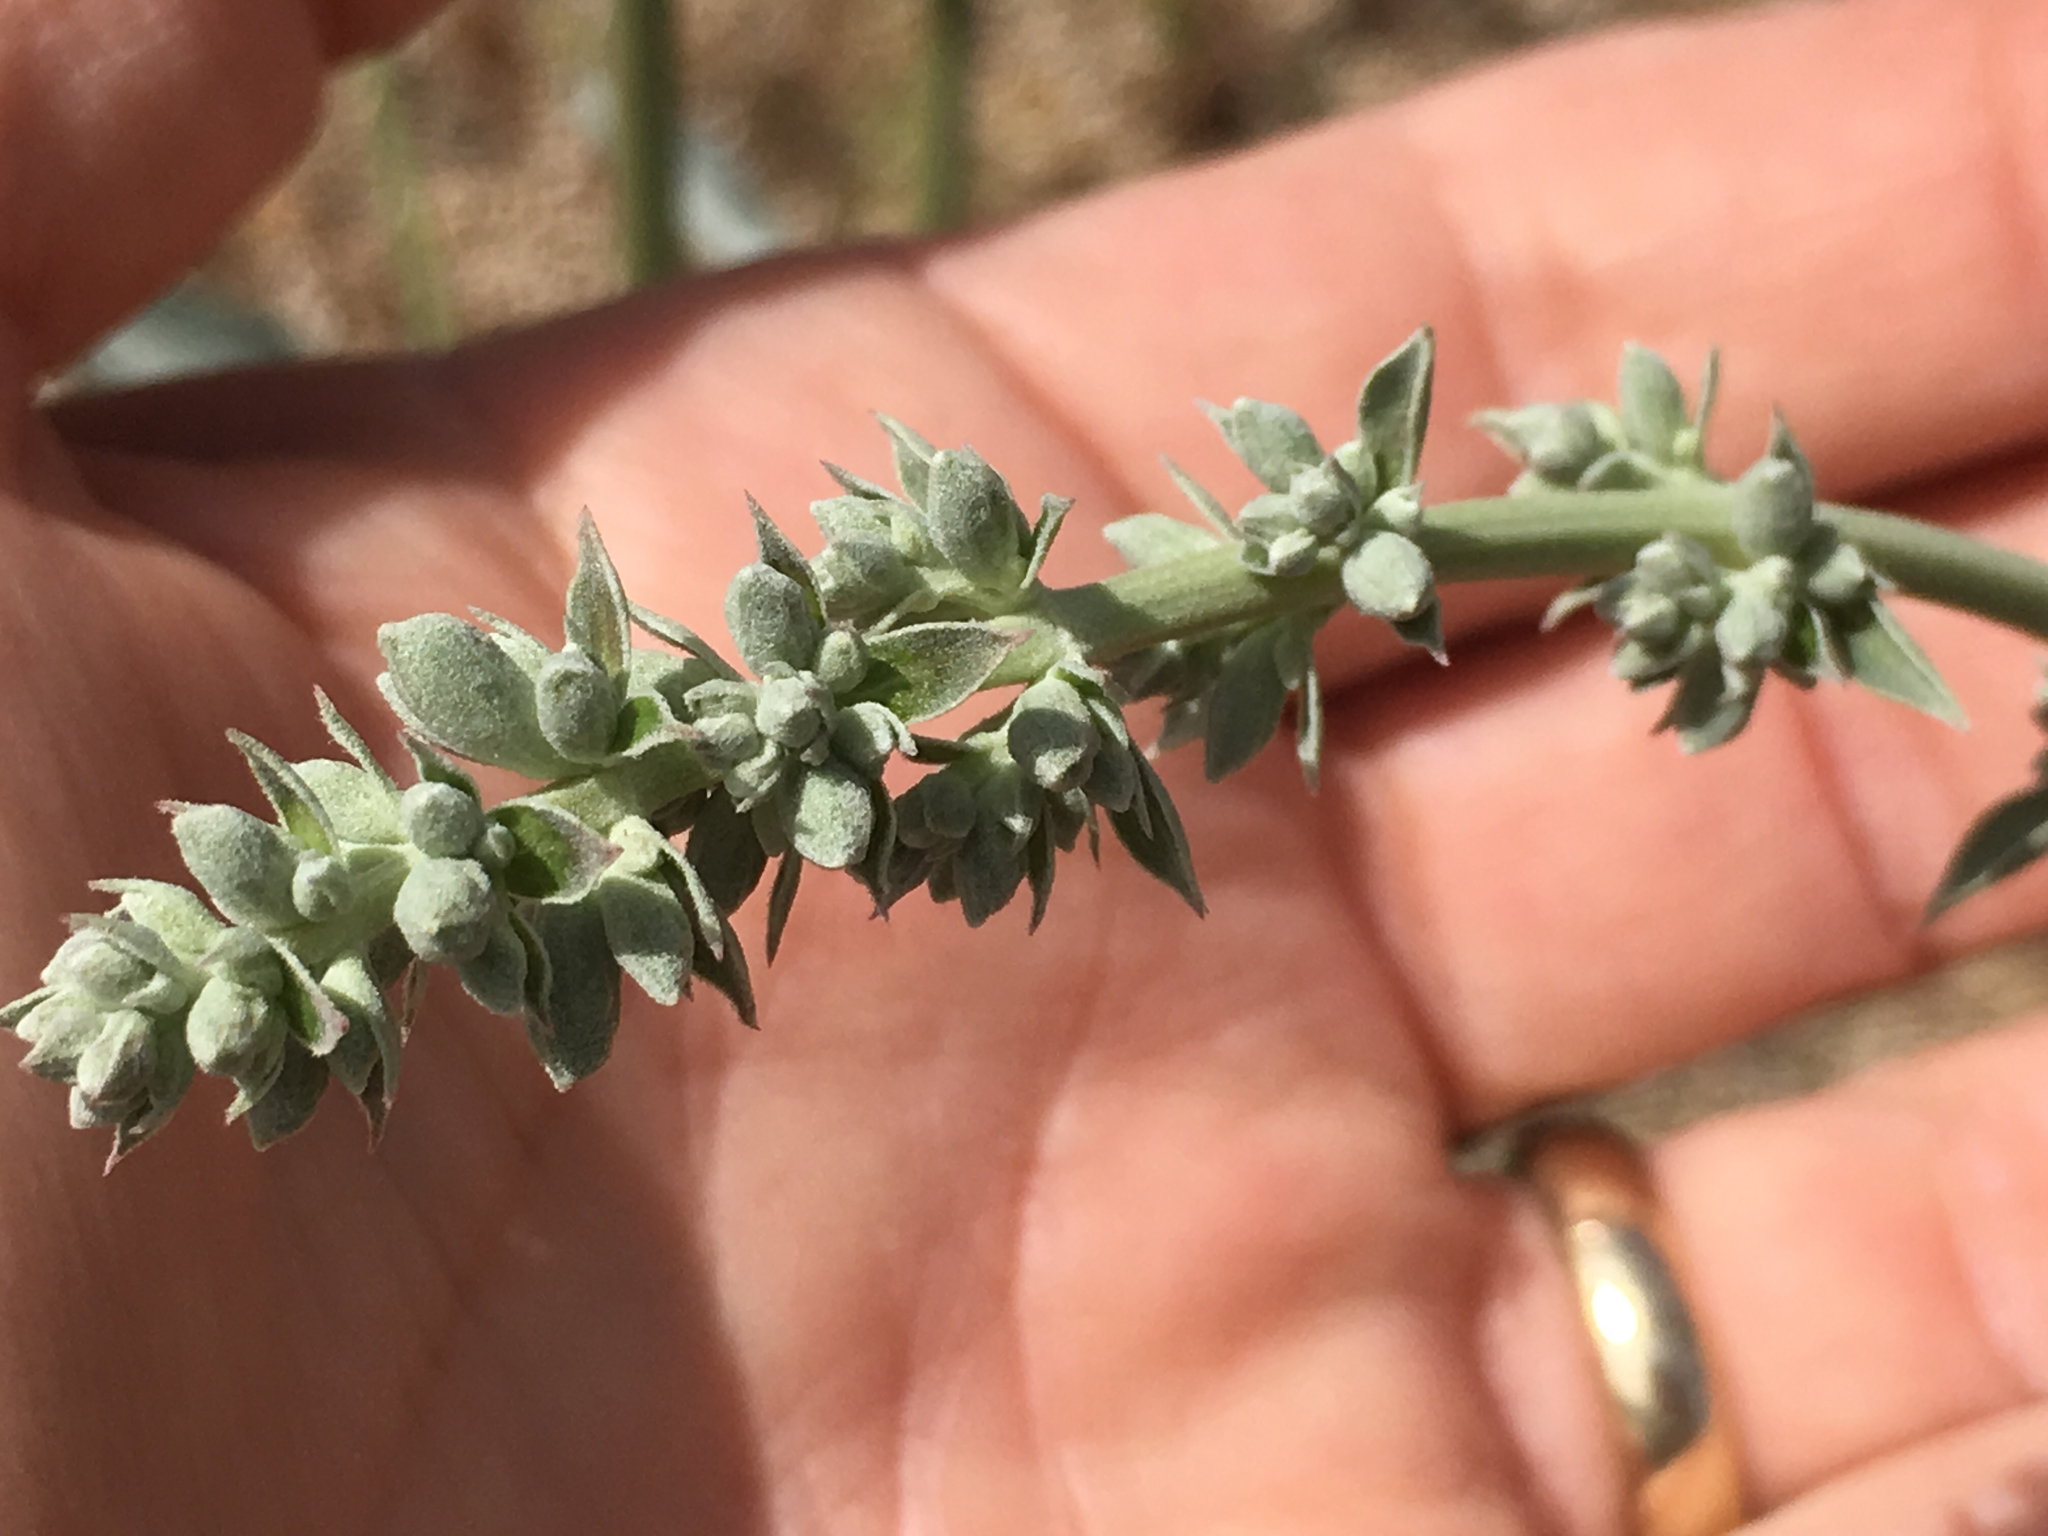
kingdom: Plantae
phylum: Tracheophyta
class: Magnoliopsida
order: Lamiales
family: Lamiaceae
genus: Salvia
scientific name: Salvia apiana
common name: White sage
